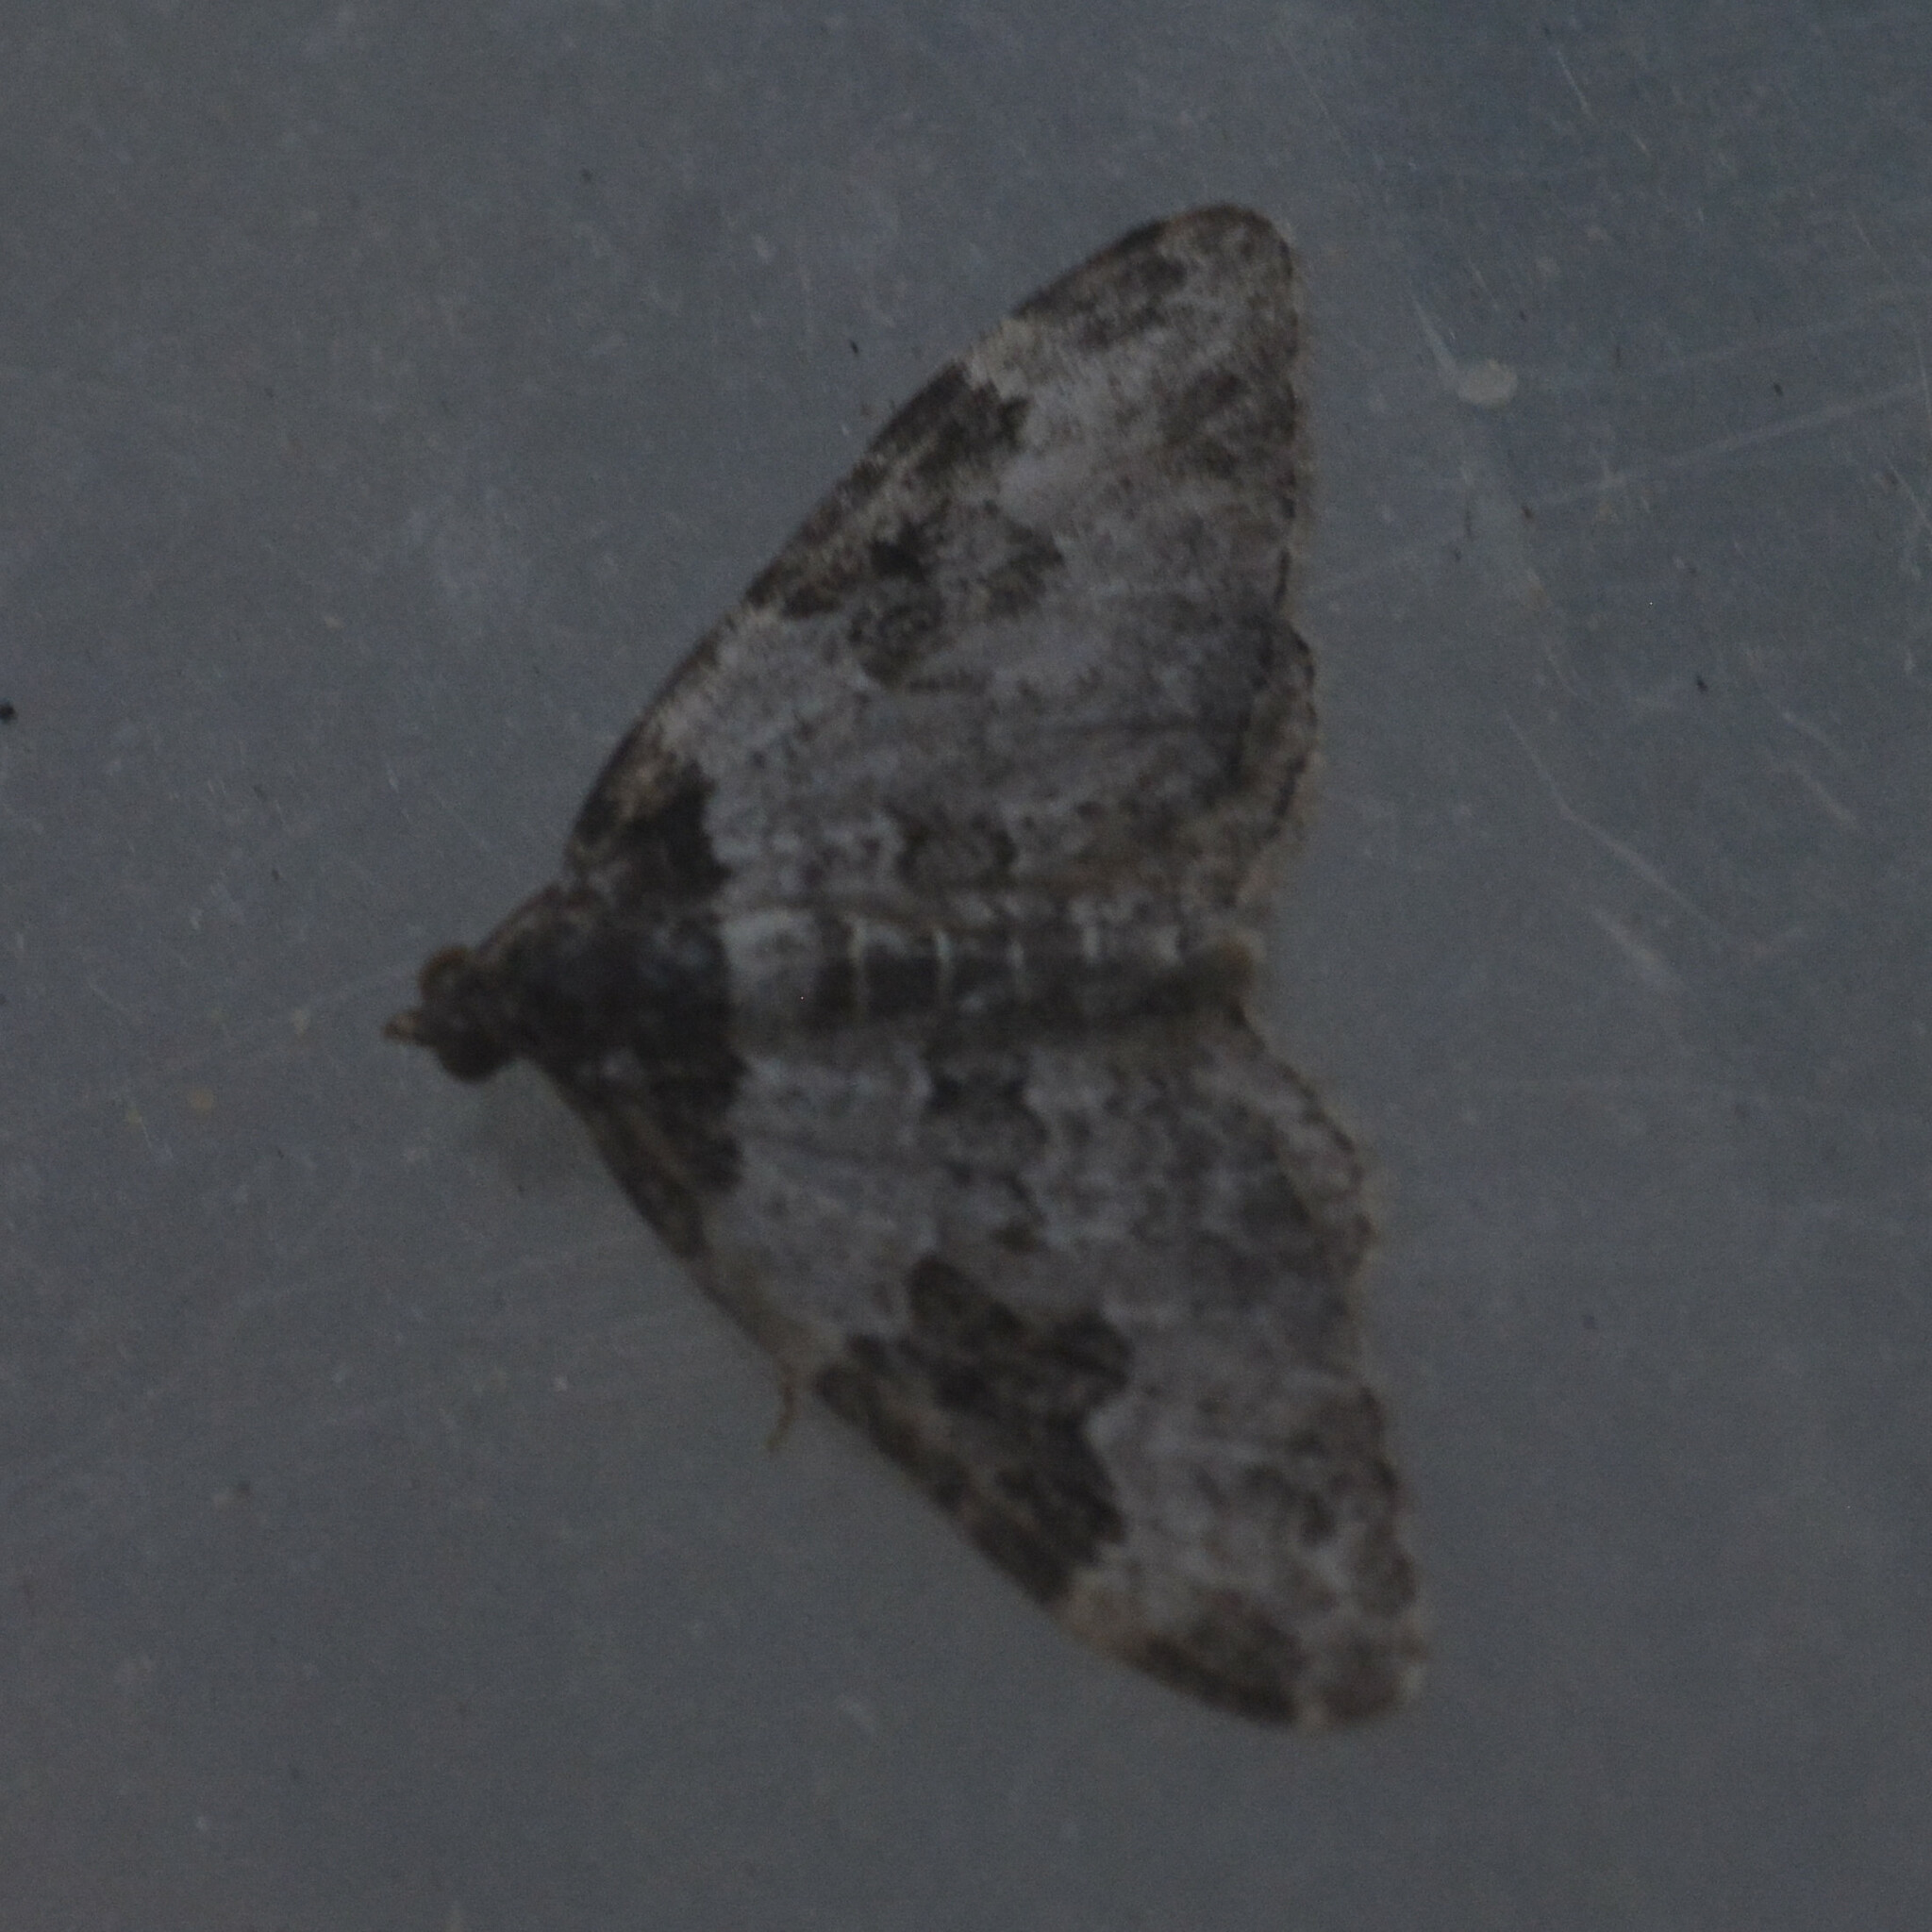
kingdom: Animalia
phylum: Arthropoda
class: Insecta
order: Lepidoptera
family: Geometridae
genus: Xanthorhoe
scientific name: Xanthorhoe fluctuata
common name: Garden carpet
